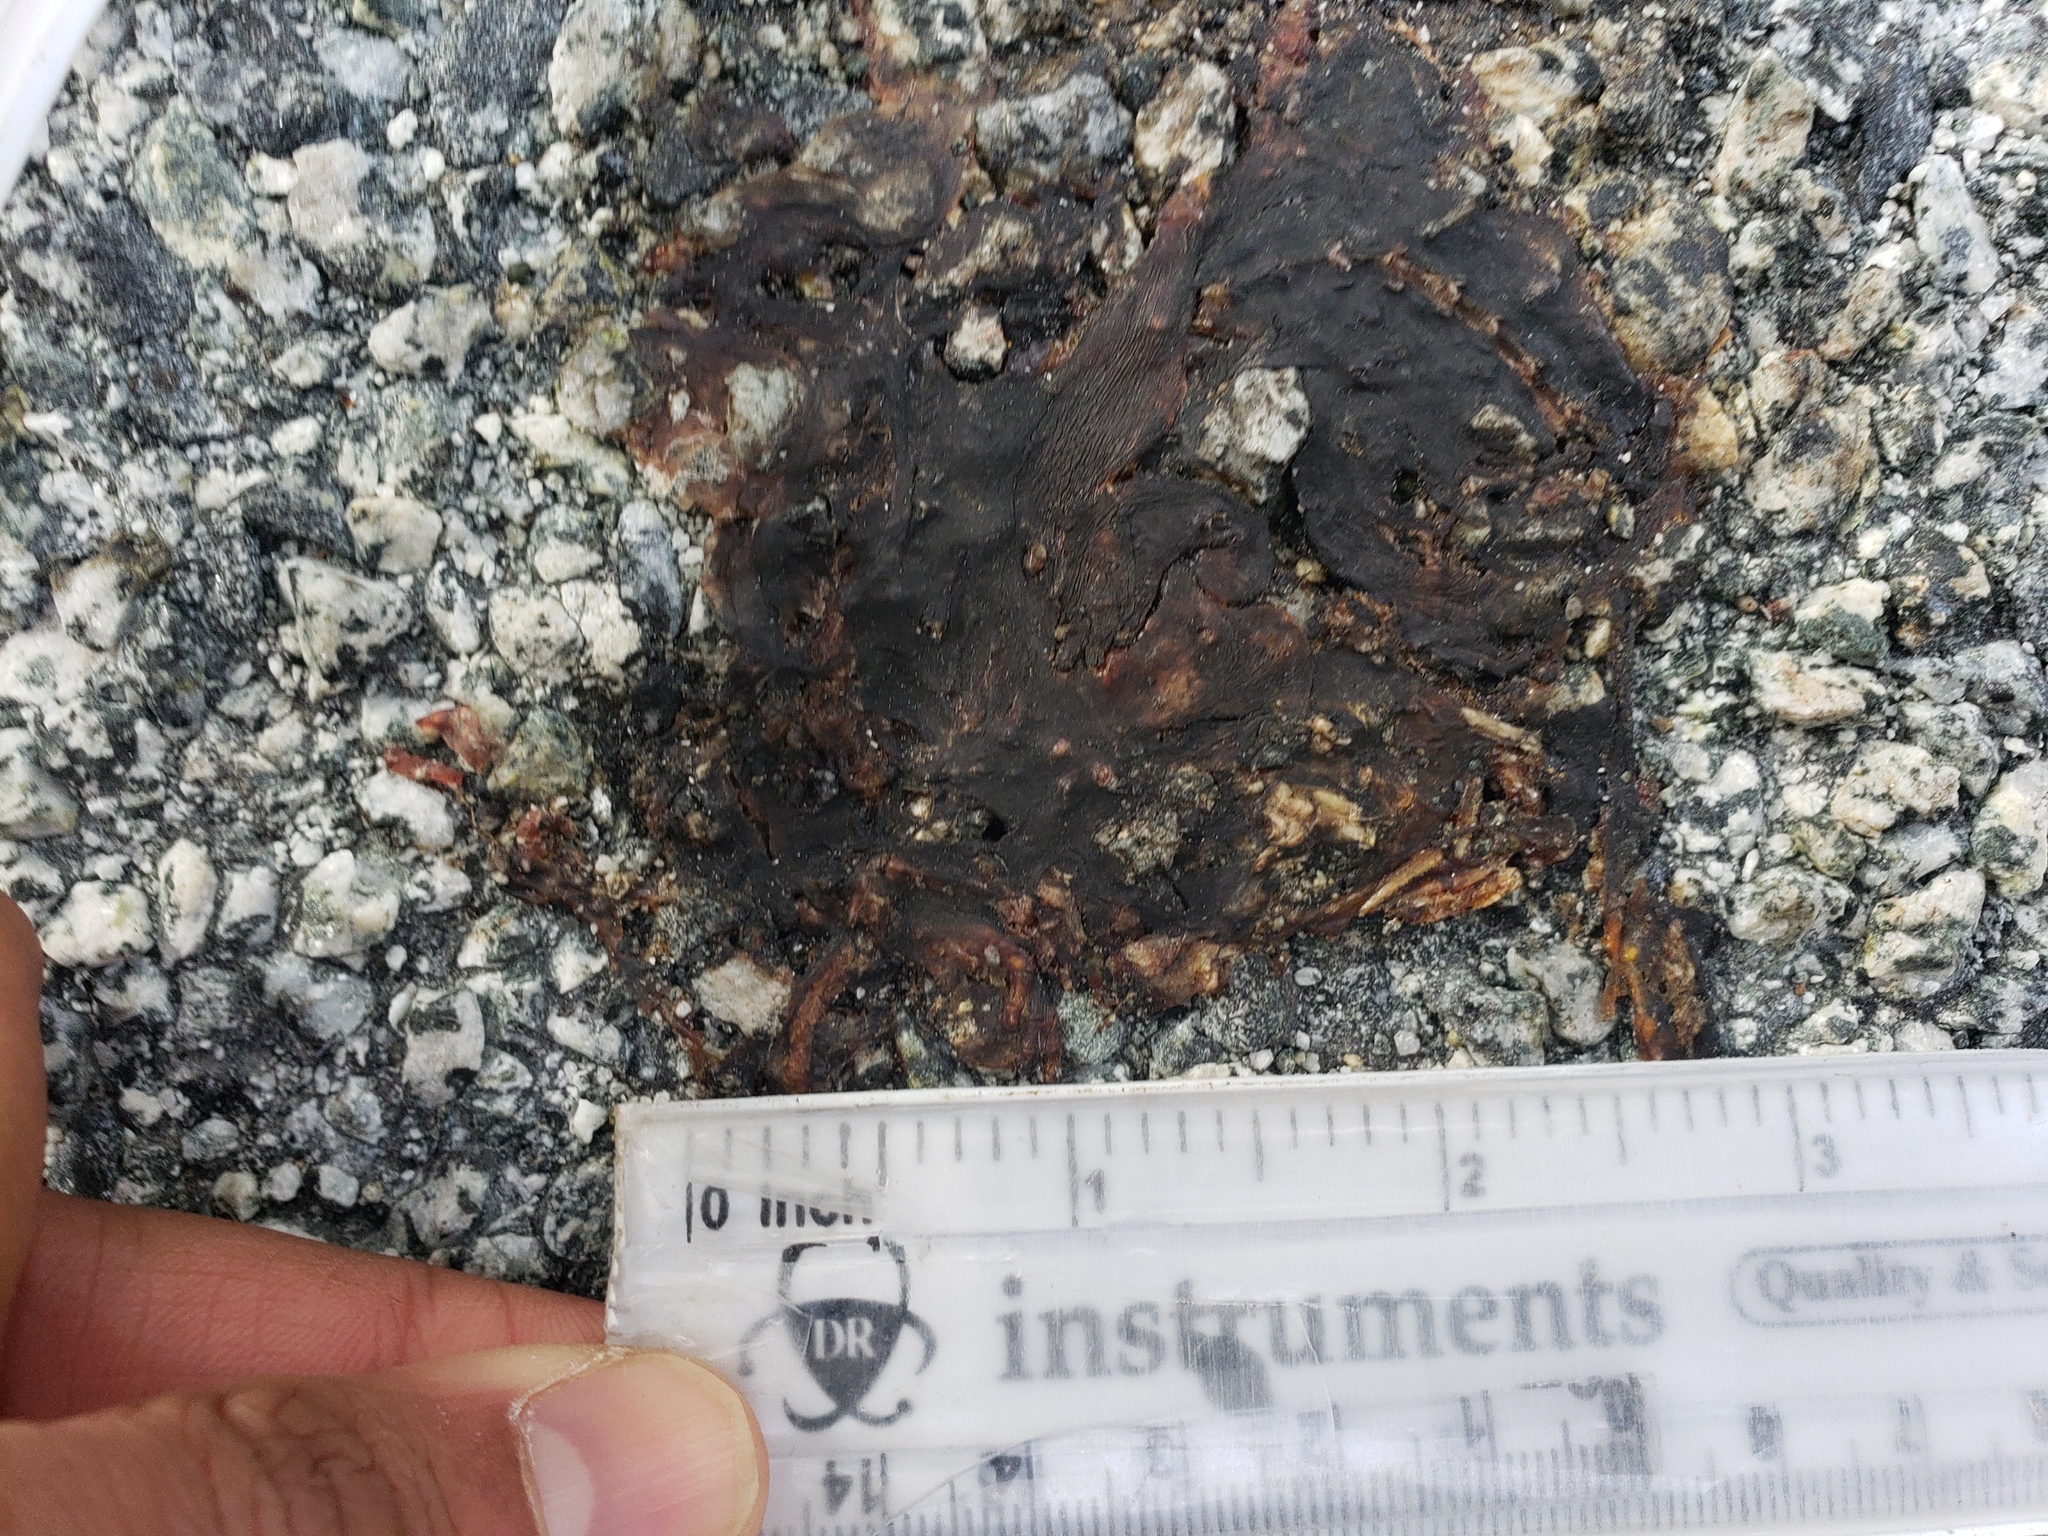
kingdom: Animalia
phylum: Chordata
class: Amphibia
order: Caudata
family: Salamandridae
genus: Taricha
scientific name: Taricha
